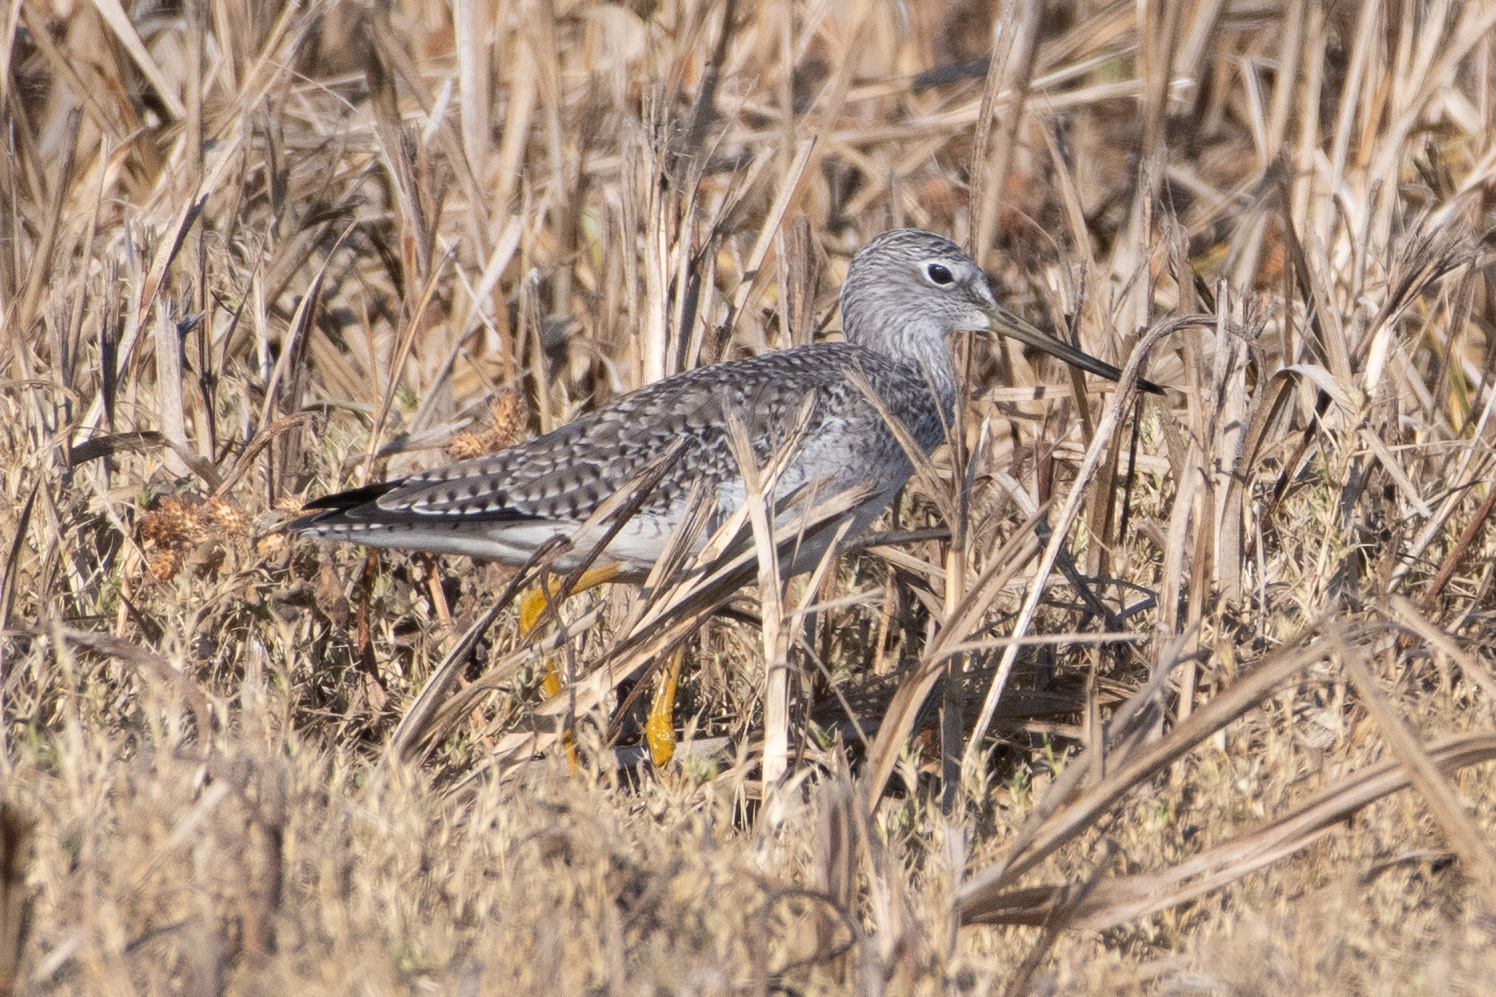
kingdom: Animalia
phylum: Chordata
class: Aves
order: Charadriiformes
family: Scolopacidae
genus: Tringa
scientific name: Tringa melanoleuca
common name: Greater yellowlegs
